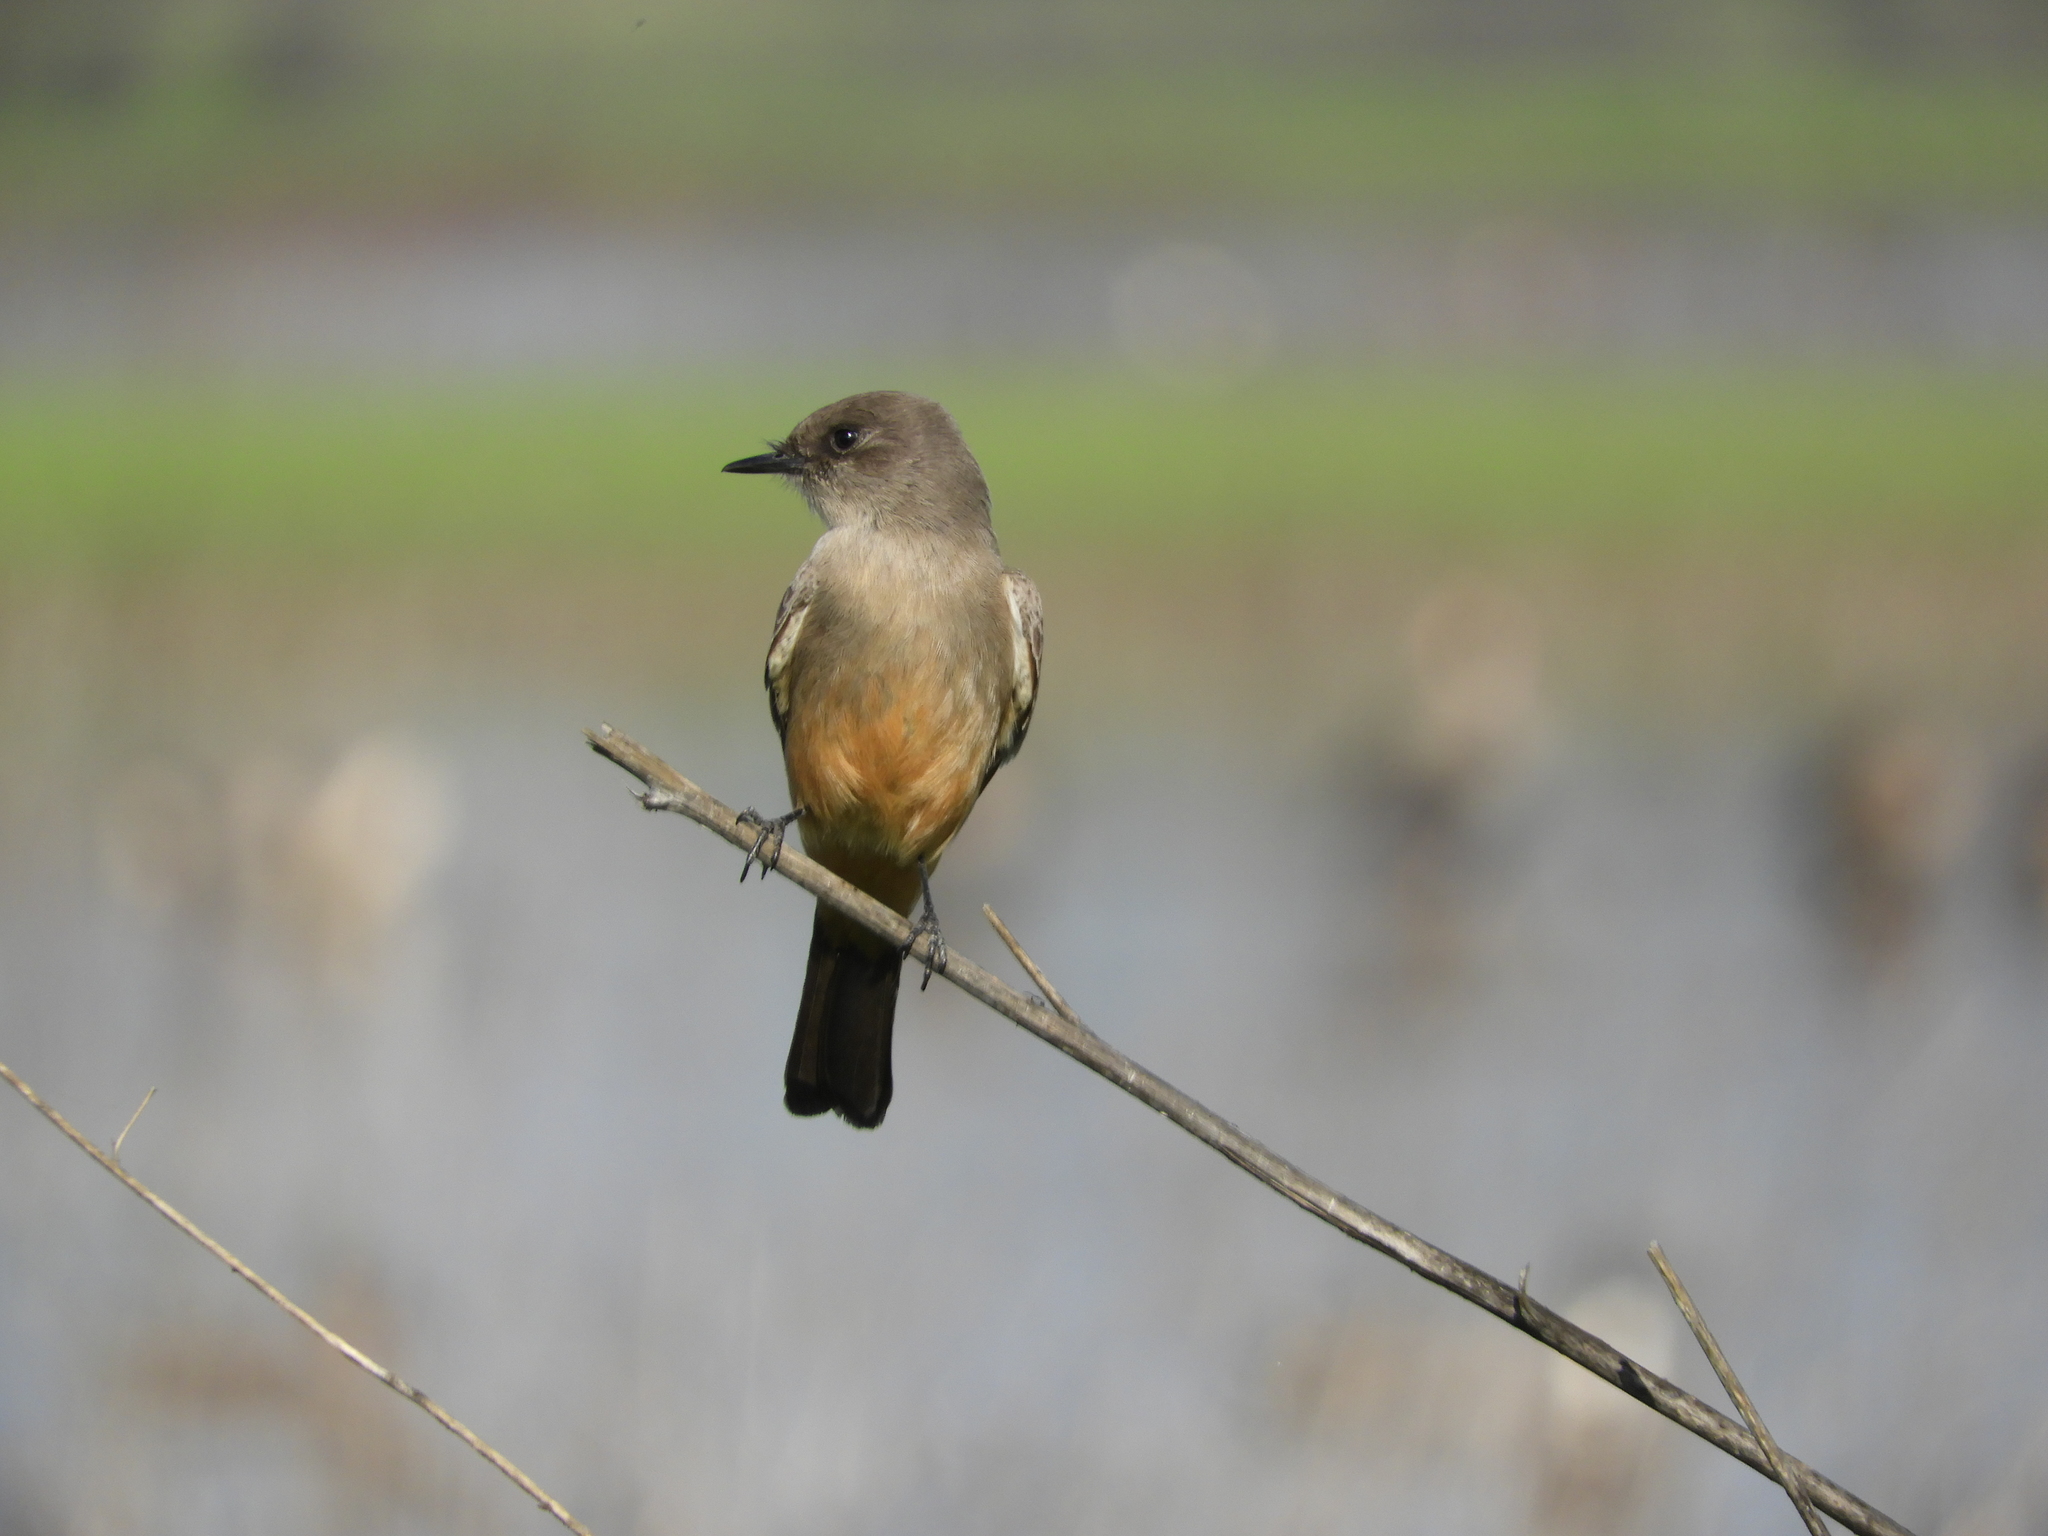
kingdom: Animalia
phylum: Chordata
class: Aves
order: Passeriformes
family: Tyrannidae
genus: Sayornis
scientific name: Sayornis saya
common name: Say's phoebe
